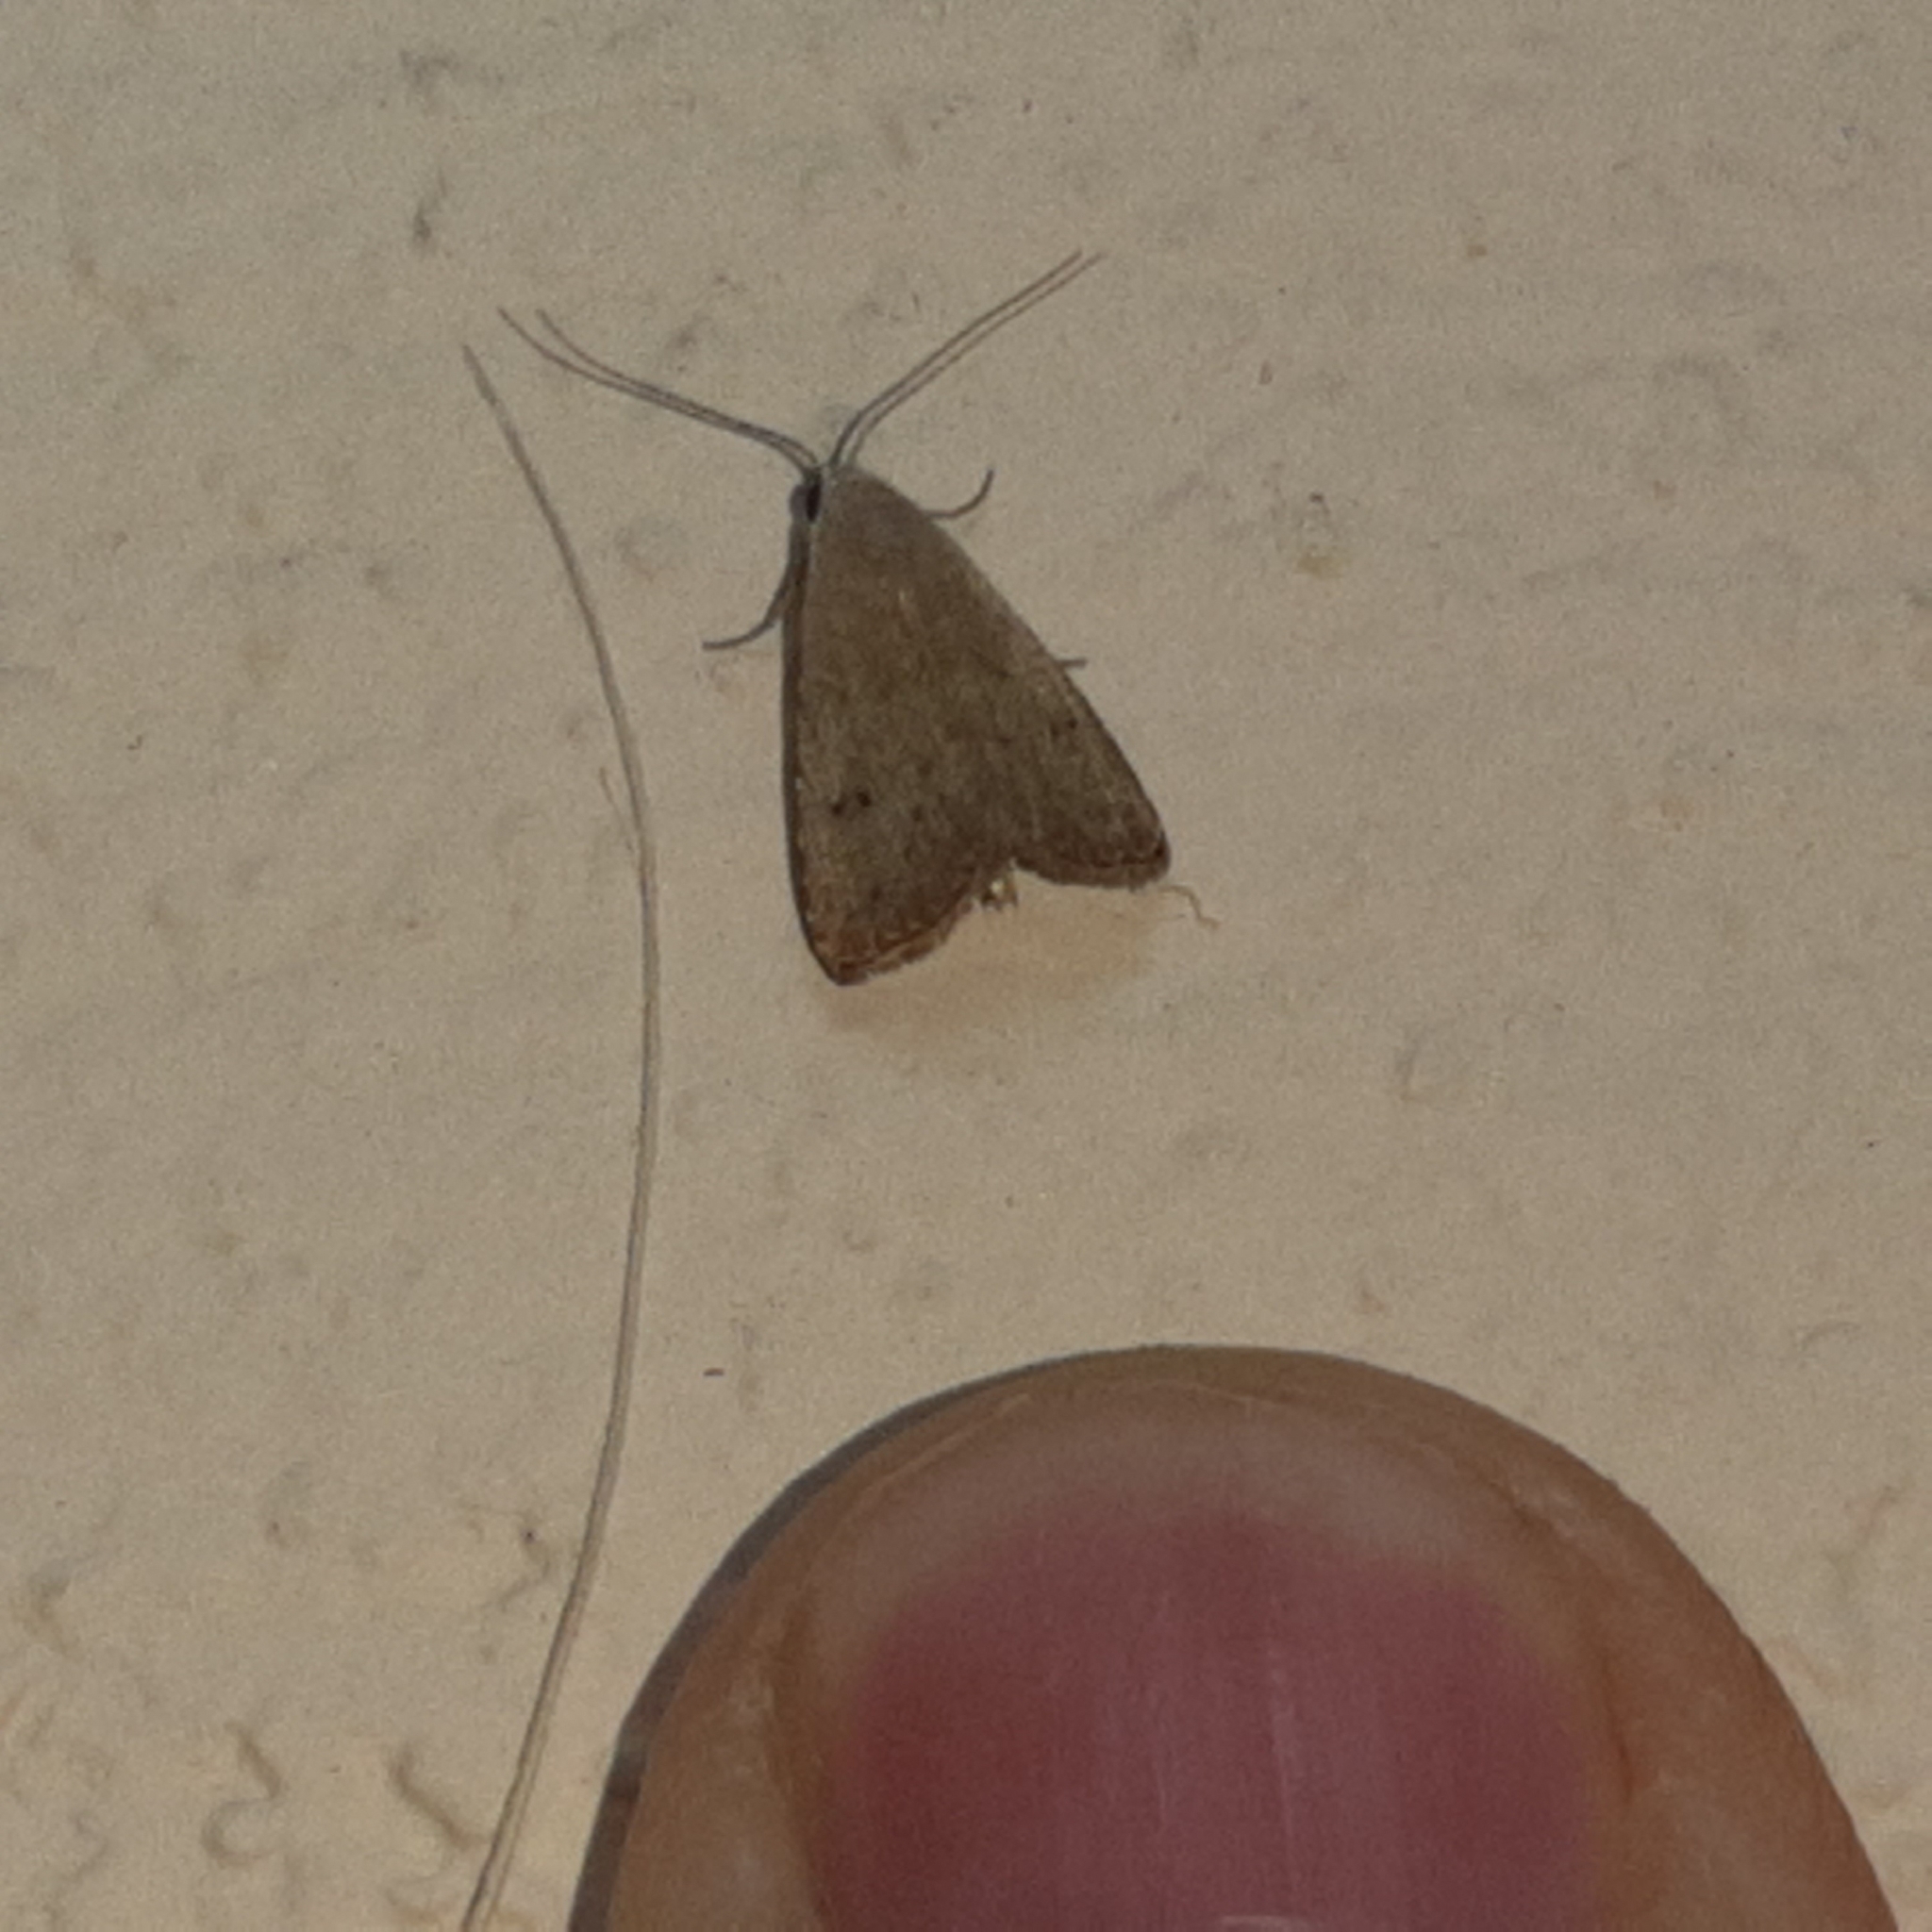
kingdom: Animalia
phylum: Arthropoda
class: Insecta
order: Lepidoptera
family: Erebidae
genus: Rivula
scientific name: Rivula pusilla
